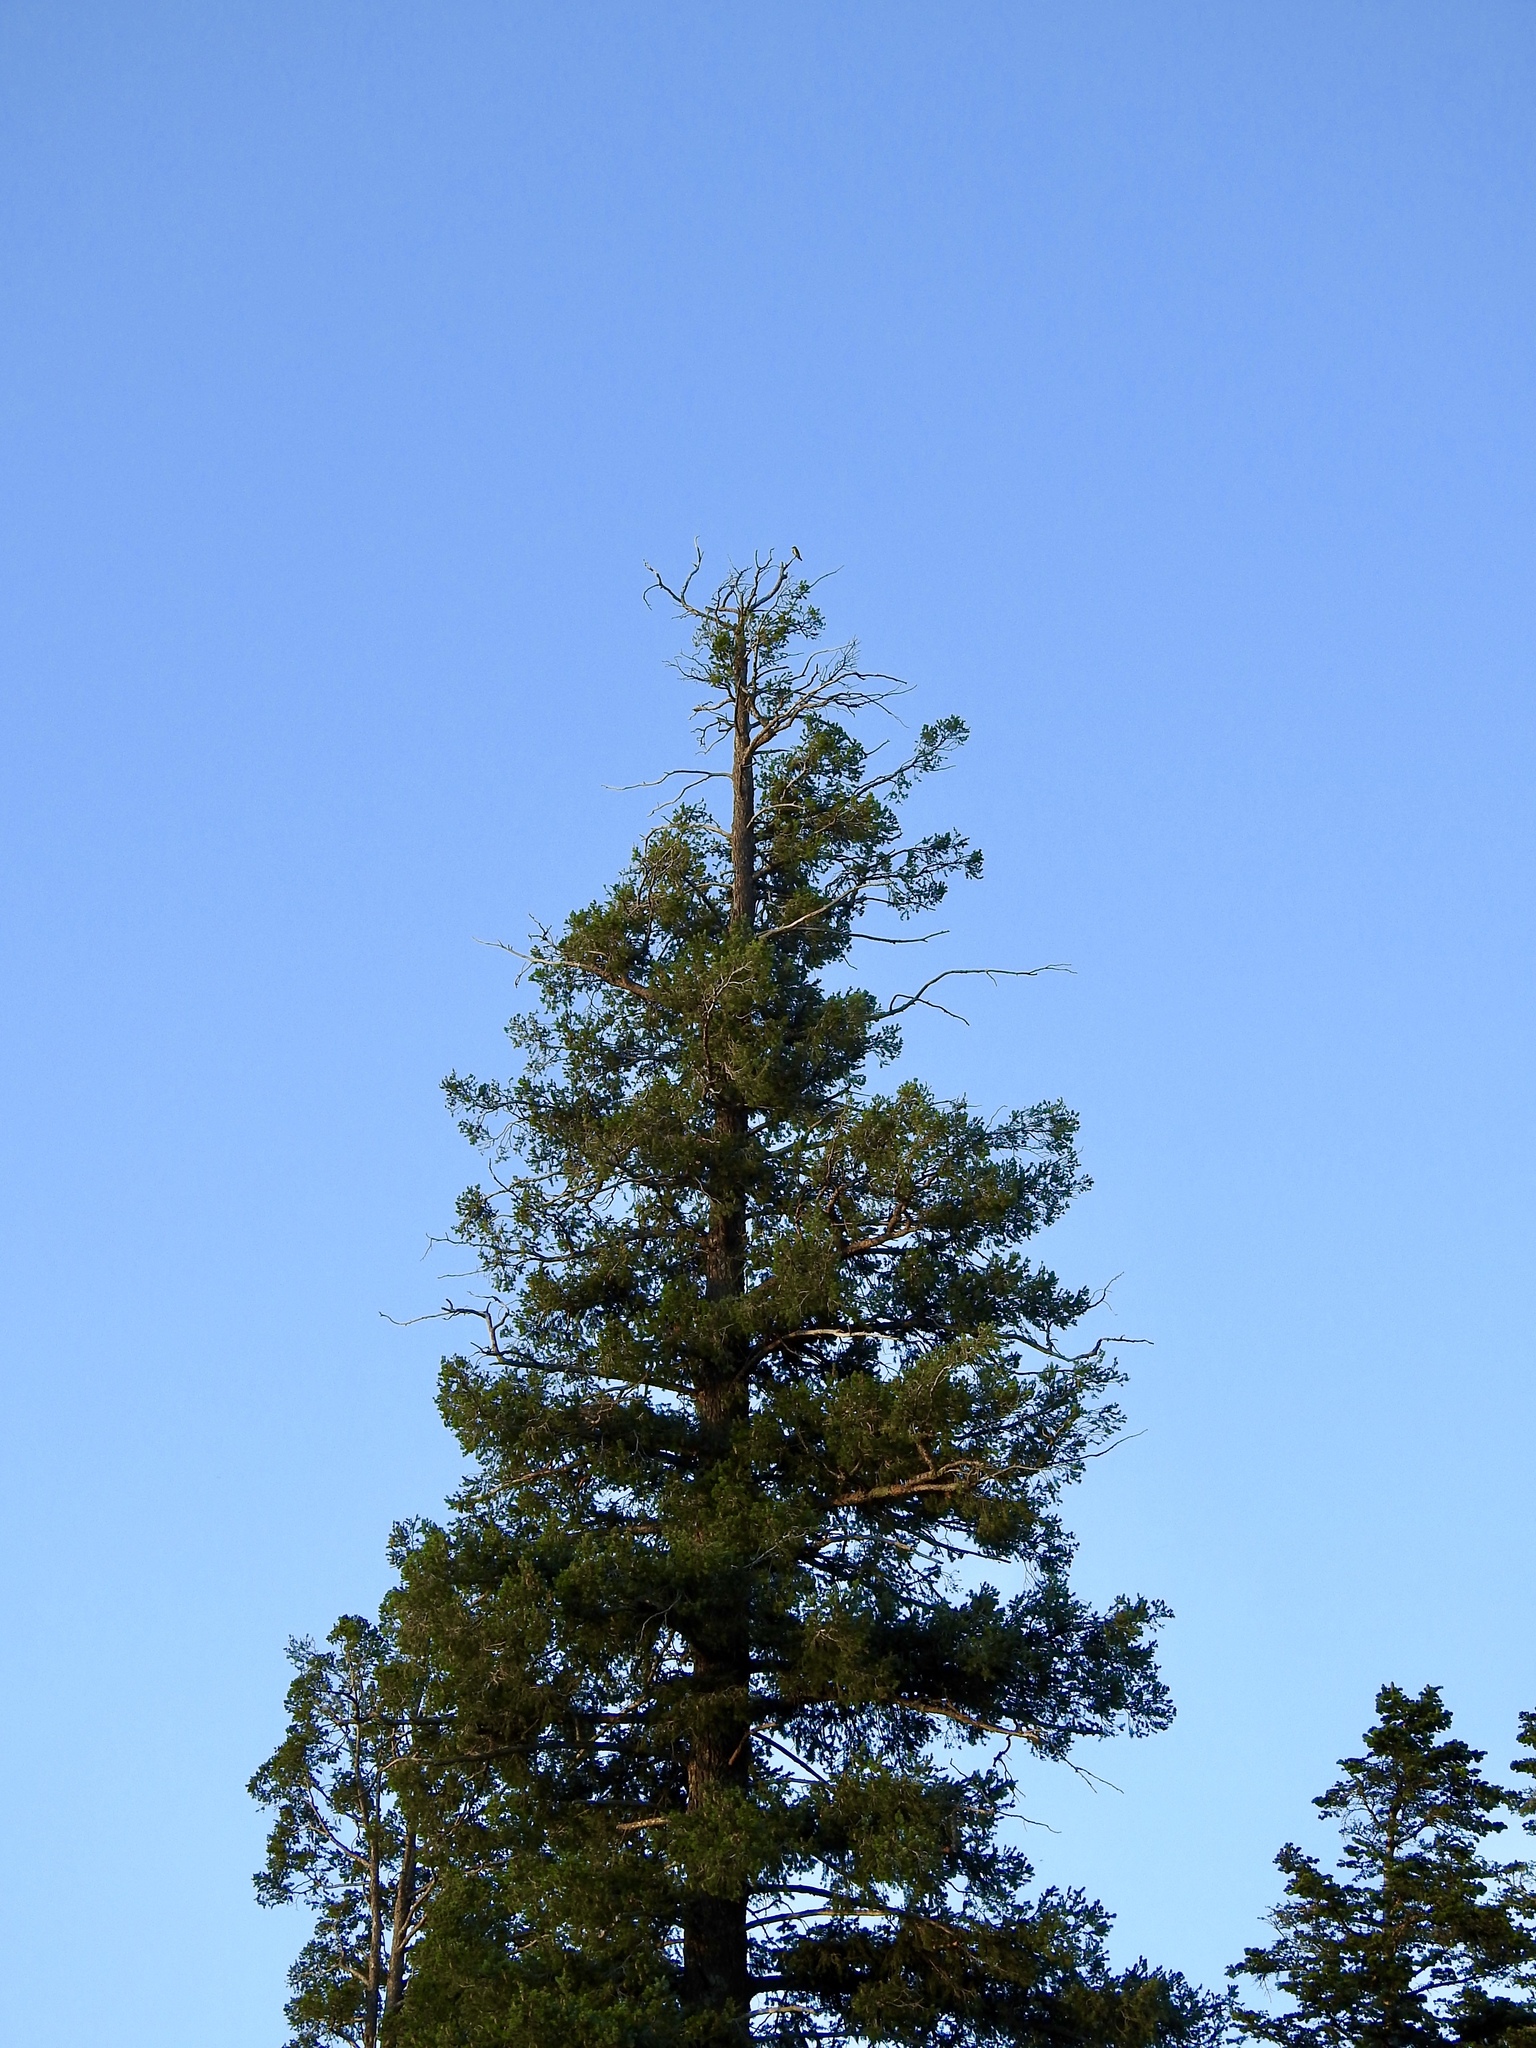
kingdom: Animalia
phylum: Chordata
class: Aves
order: Passeriformes
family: Tyrannidae
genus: Contopus
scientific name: Contopus cooperi
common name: Olive-sided flycatcher
